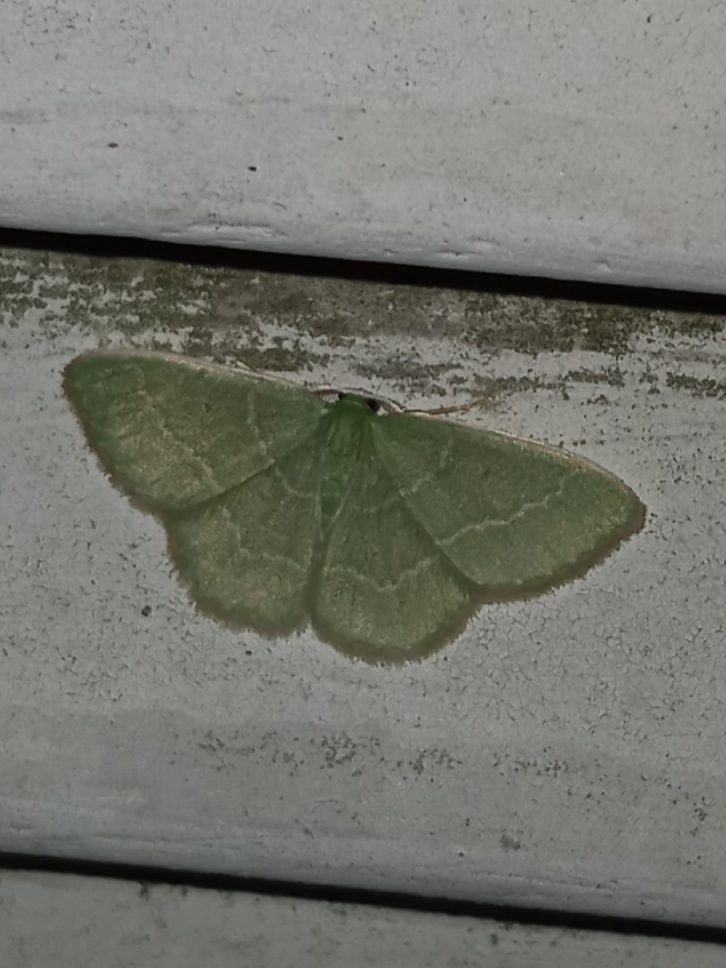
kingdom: Animalia
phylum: Arthropoda
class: Insecta
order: Lepidoptera
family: Geometridae
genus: Synchlora
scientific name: Synchlora aerata
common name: Wavy-lined emerald
